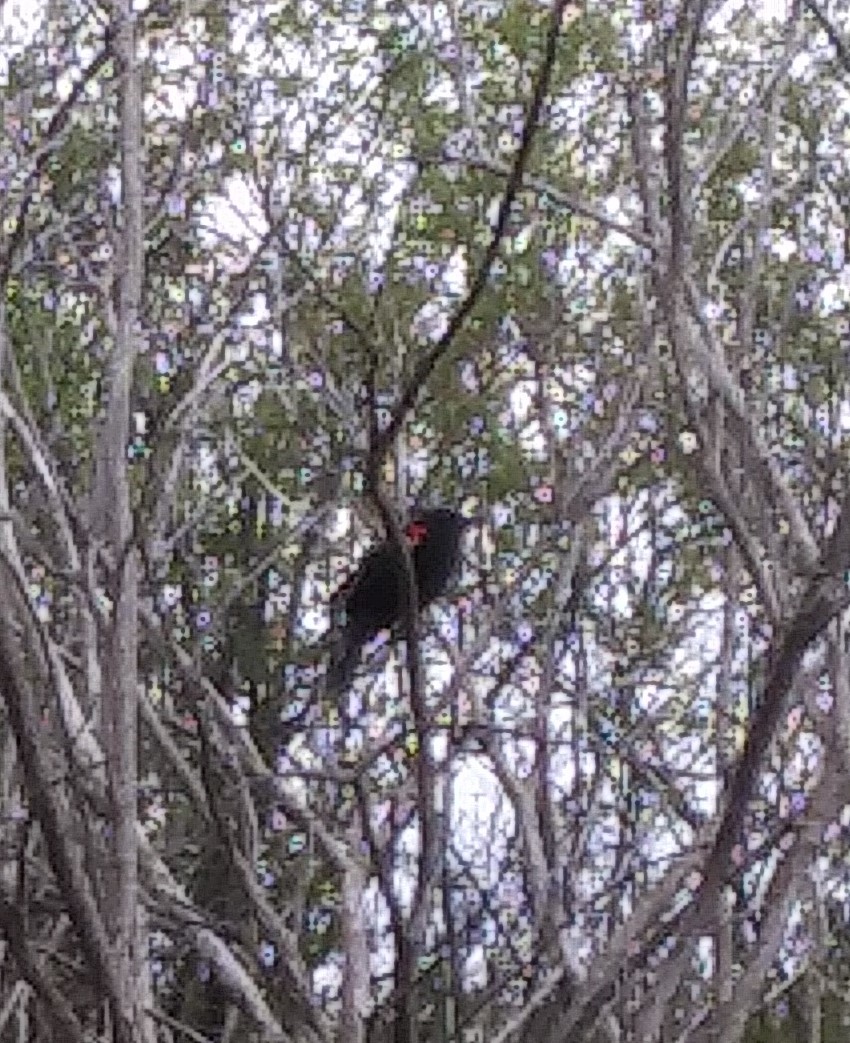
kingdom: Animalia
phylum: Chordata
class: Aves
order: Passeriformes
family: Icteridae
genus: Agelaius
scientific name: Agelaius phoeniceus
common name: Red-winged blackbird
